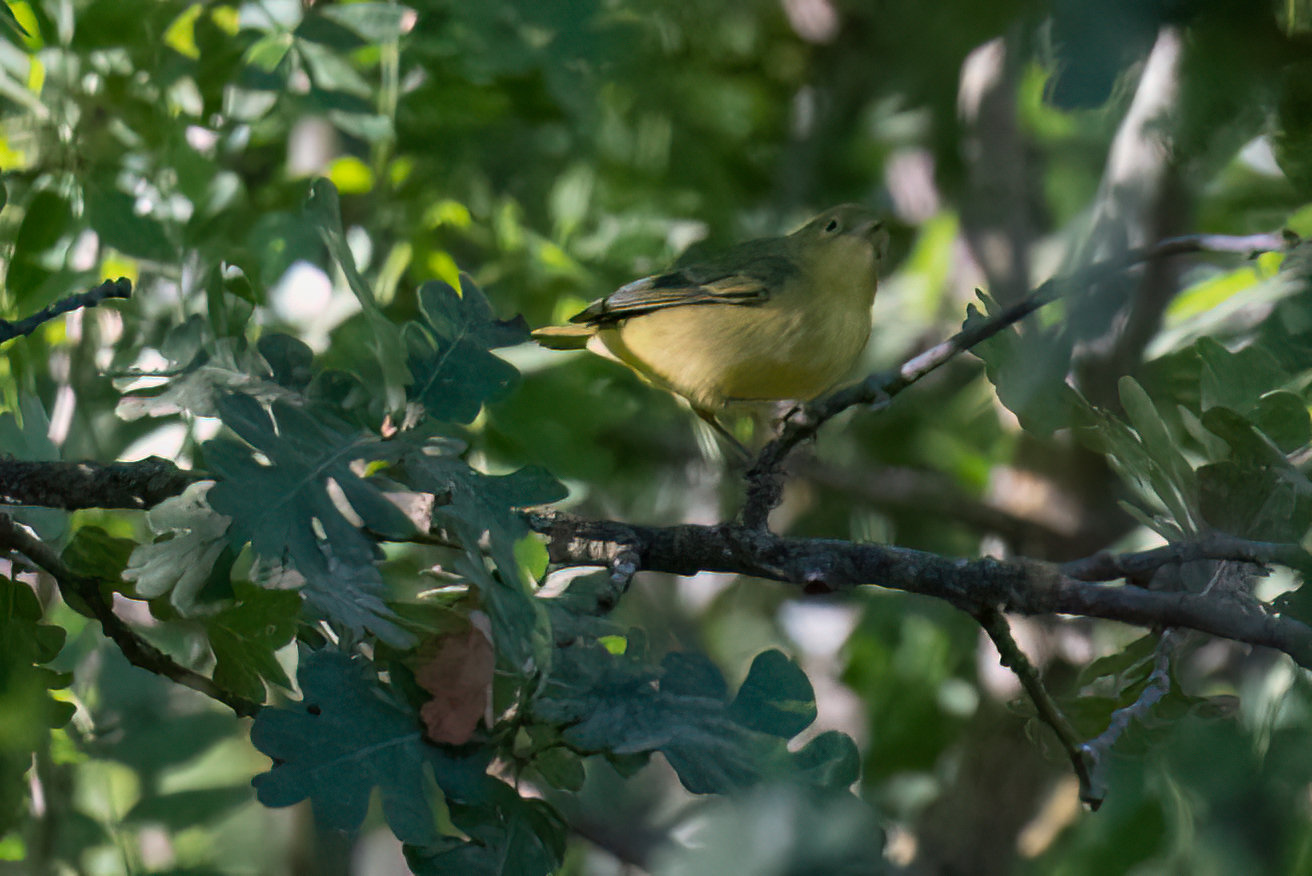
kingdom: Animalia
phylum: Chordata
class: Aves
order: Passeriformes
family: Parulidae
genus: Setophaga
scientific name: Setophaga petechia
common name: Yellow warbler
